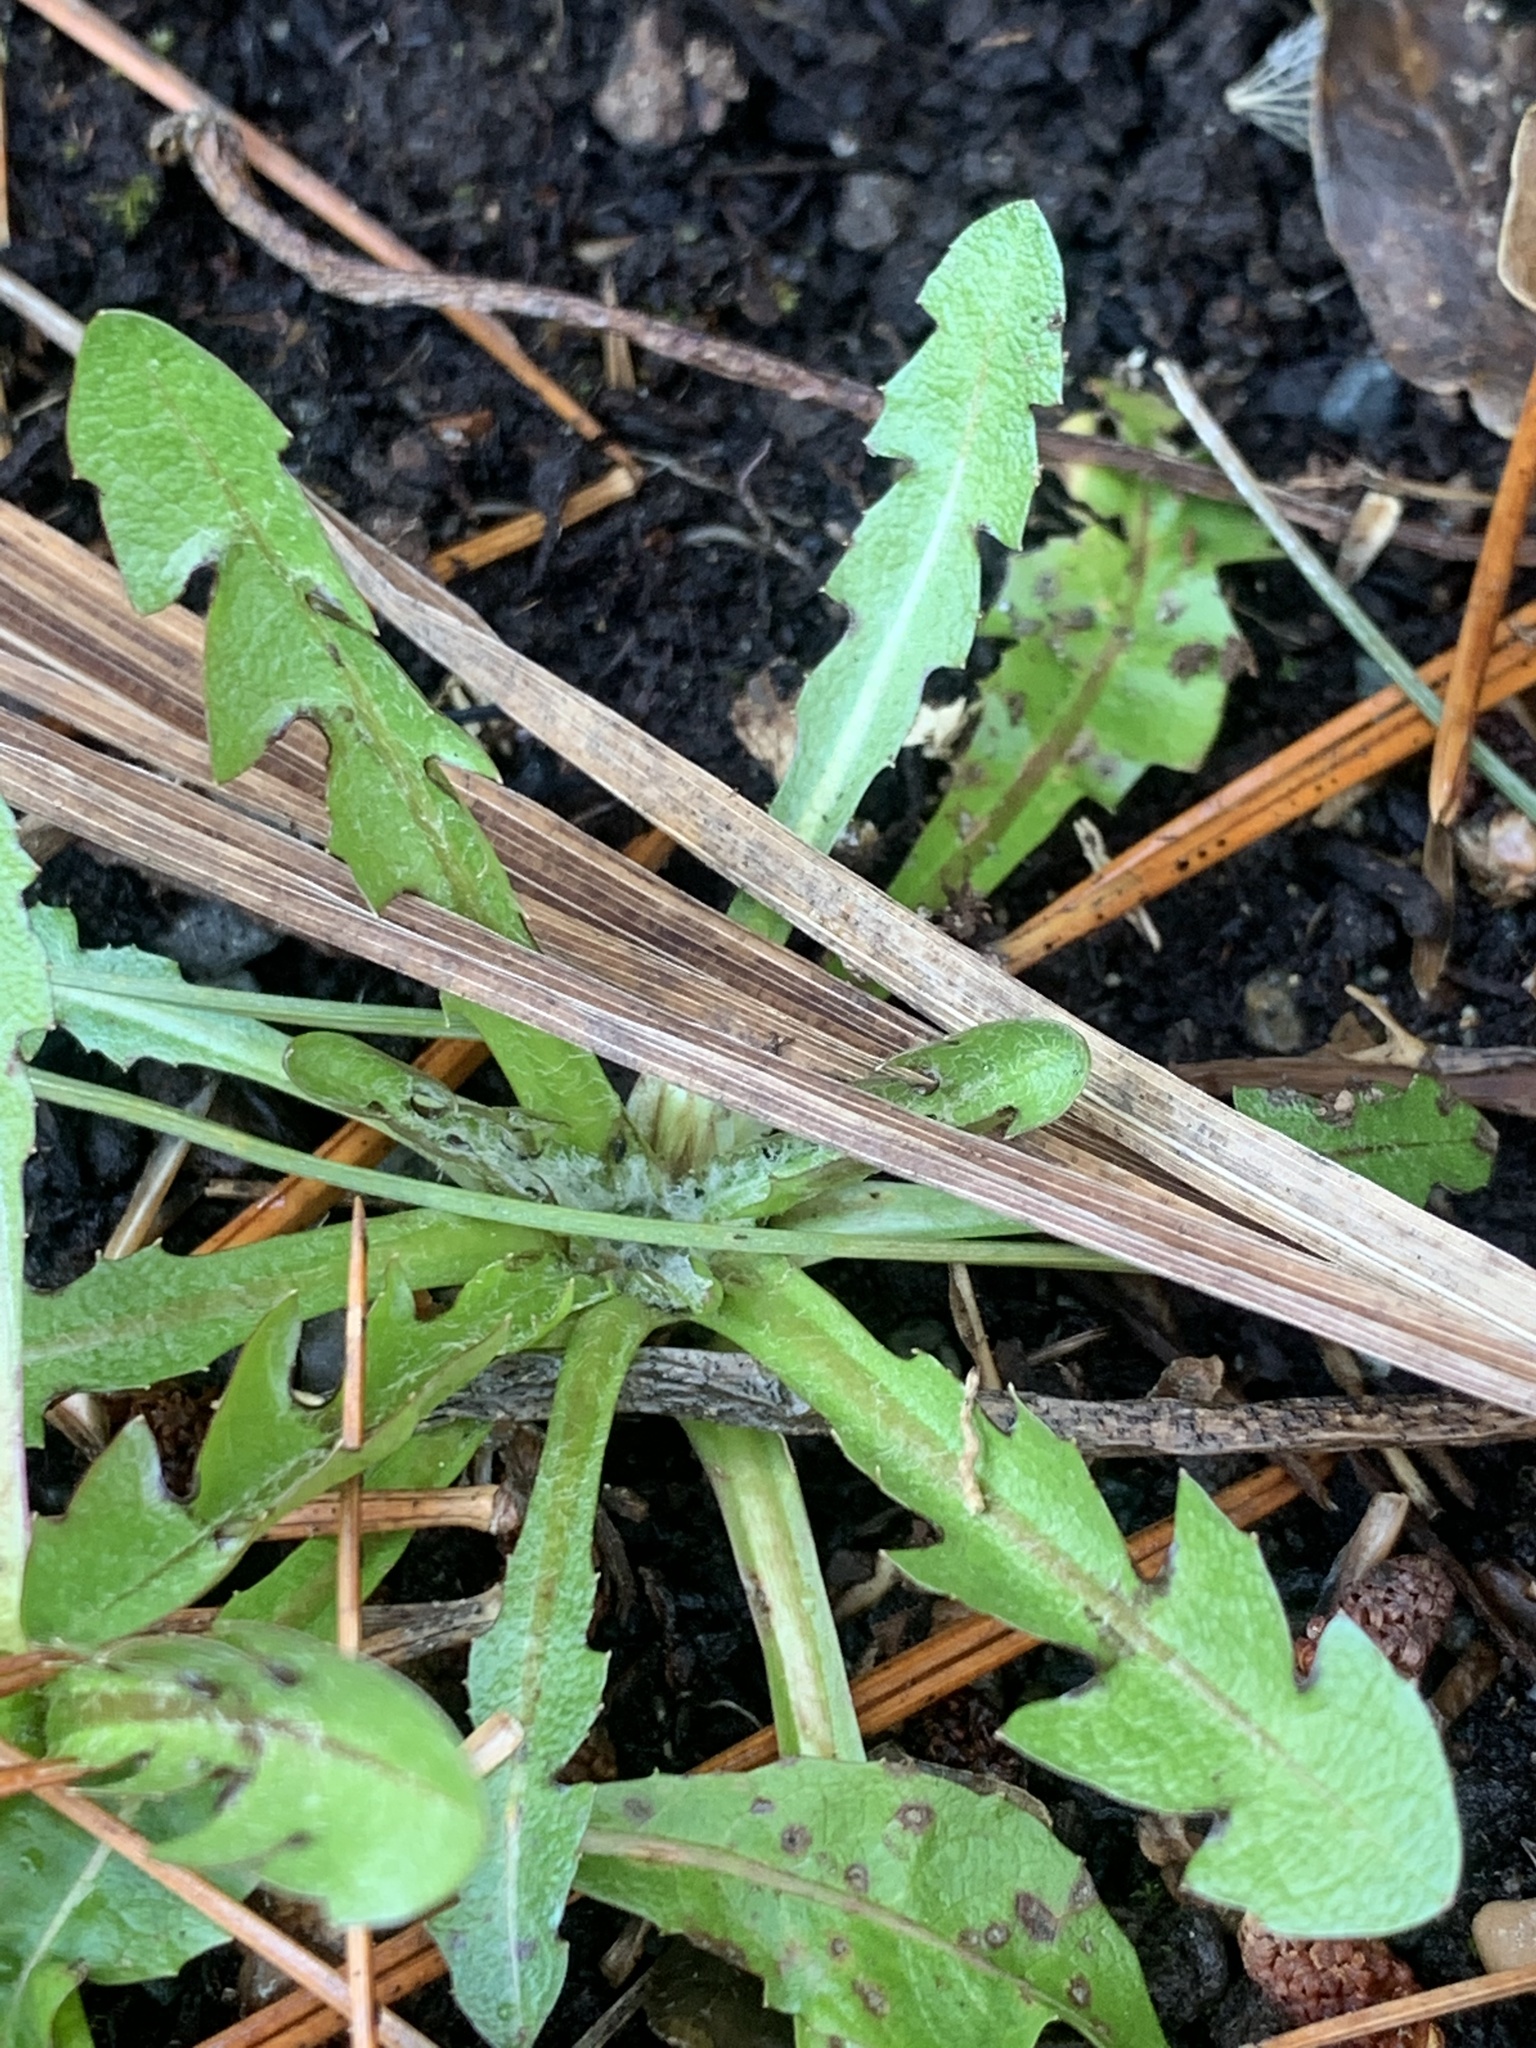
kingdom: Plantae
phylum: Tracheophyta
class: Magnoliopsida
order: Asterales
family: Asteraceae
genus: Taraxacum
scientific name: Taraxacum officinale
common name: Common dandelion
